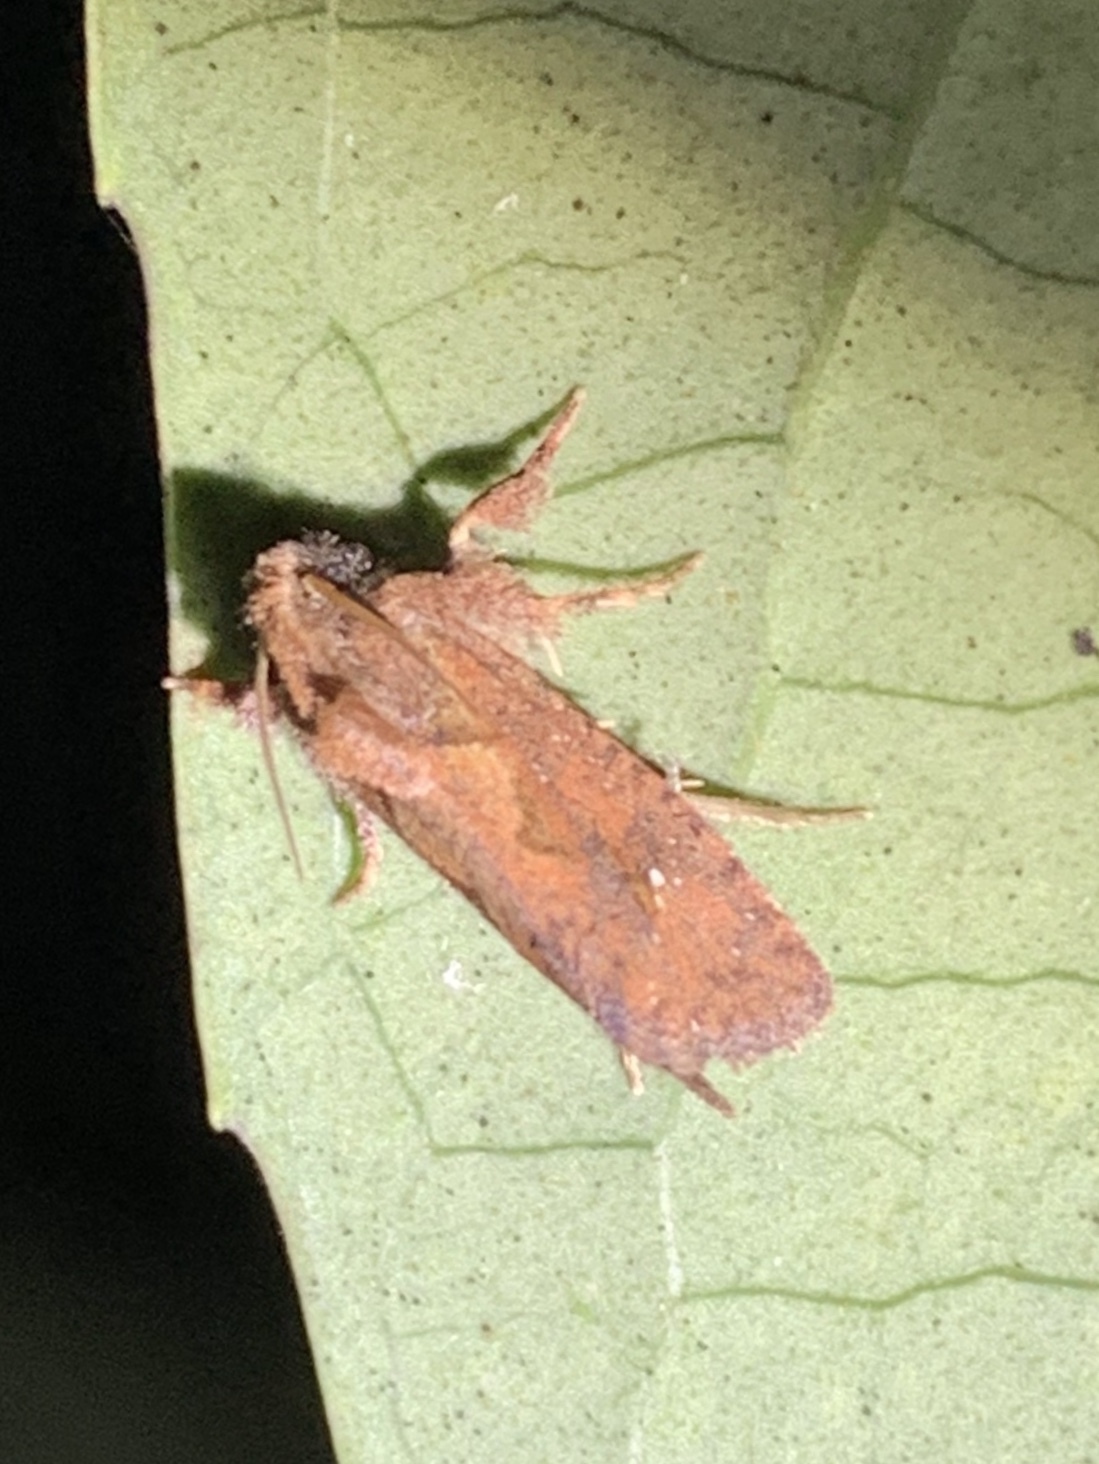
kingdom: Animalia
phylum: Arthropoda
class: Insecta
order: Lepidoptera
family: Tineidae
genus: Acrolophus
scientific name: Acrolophus walsinghami
